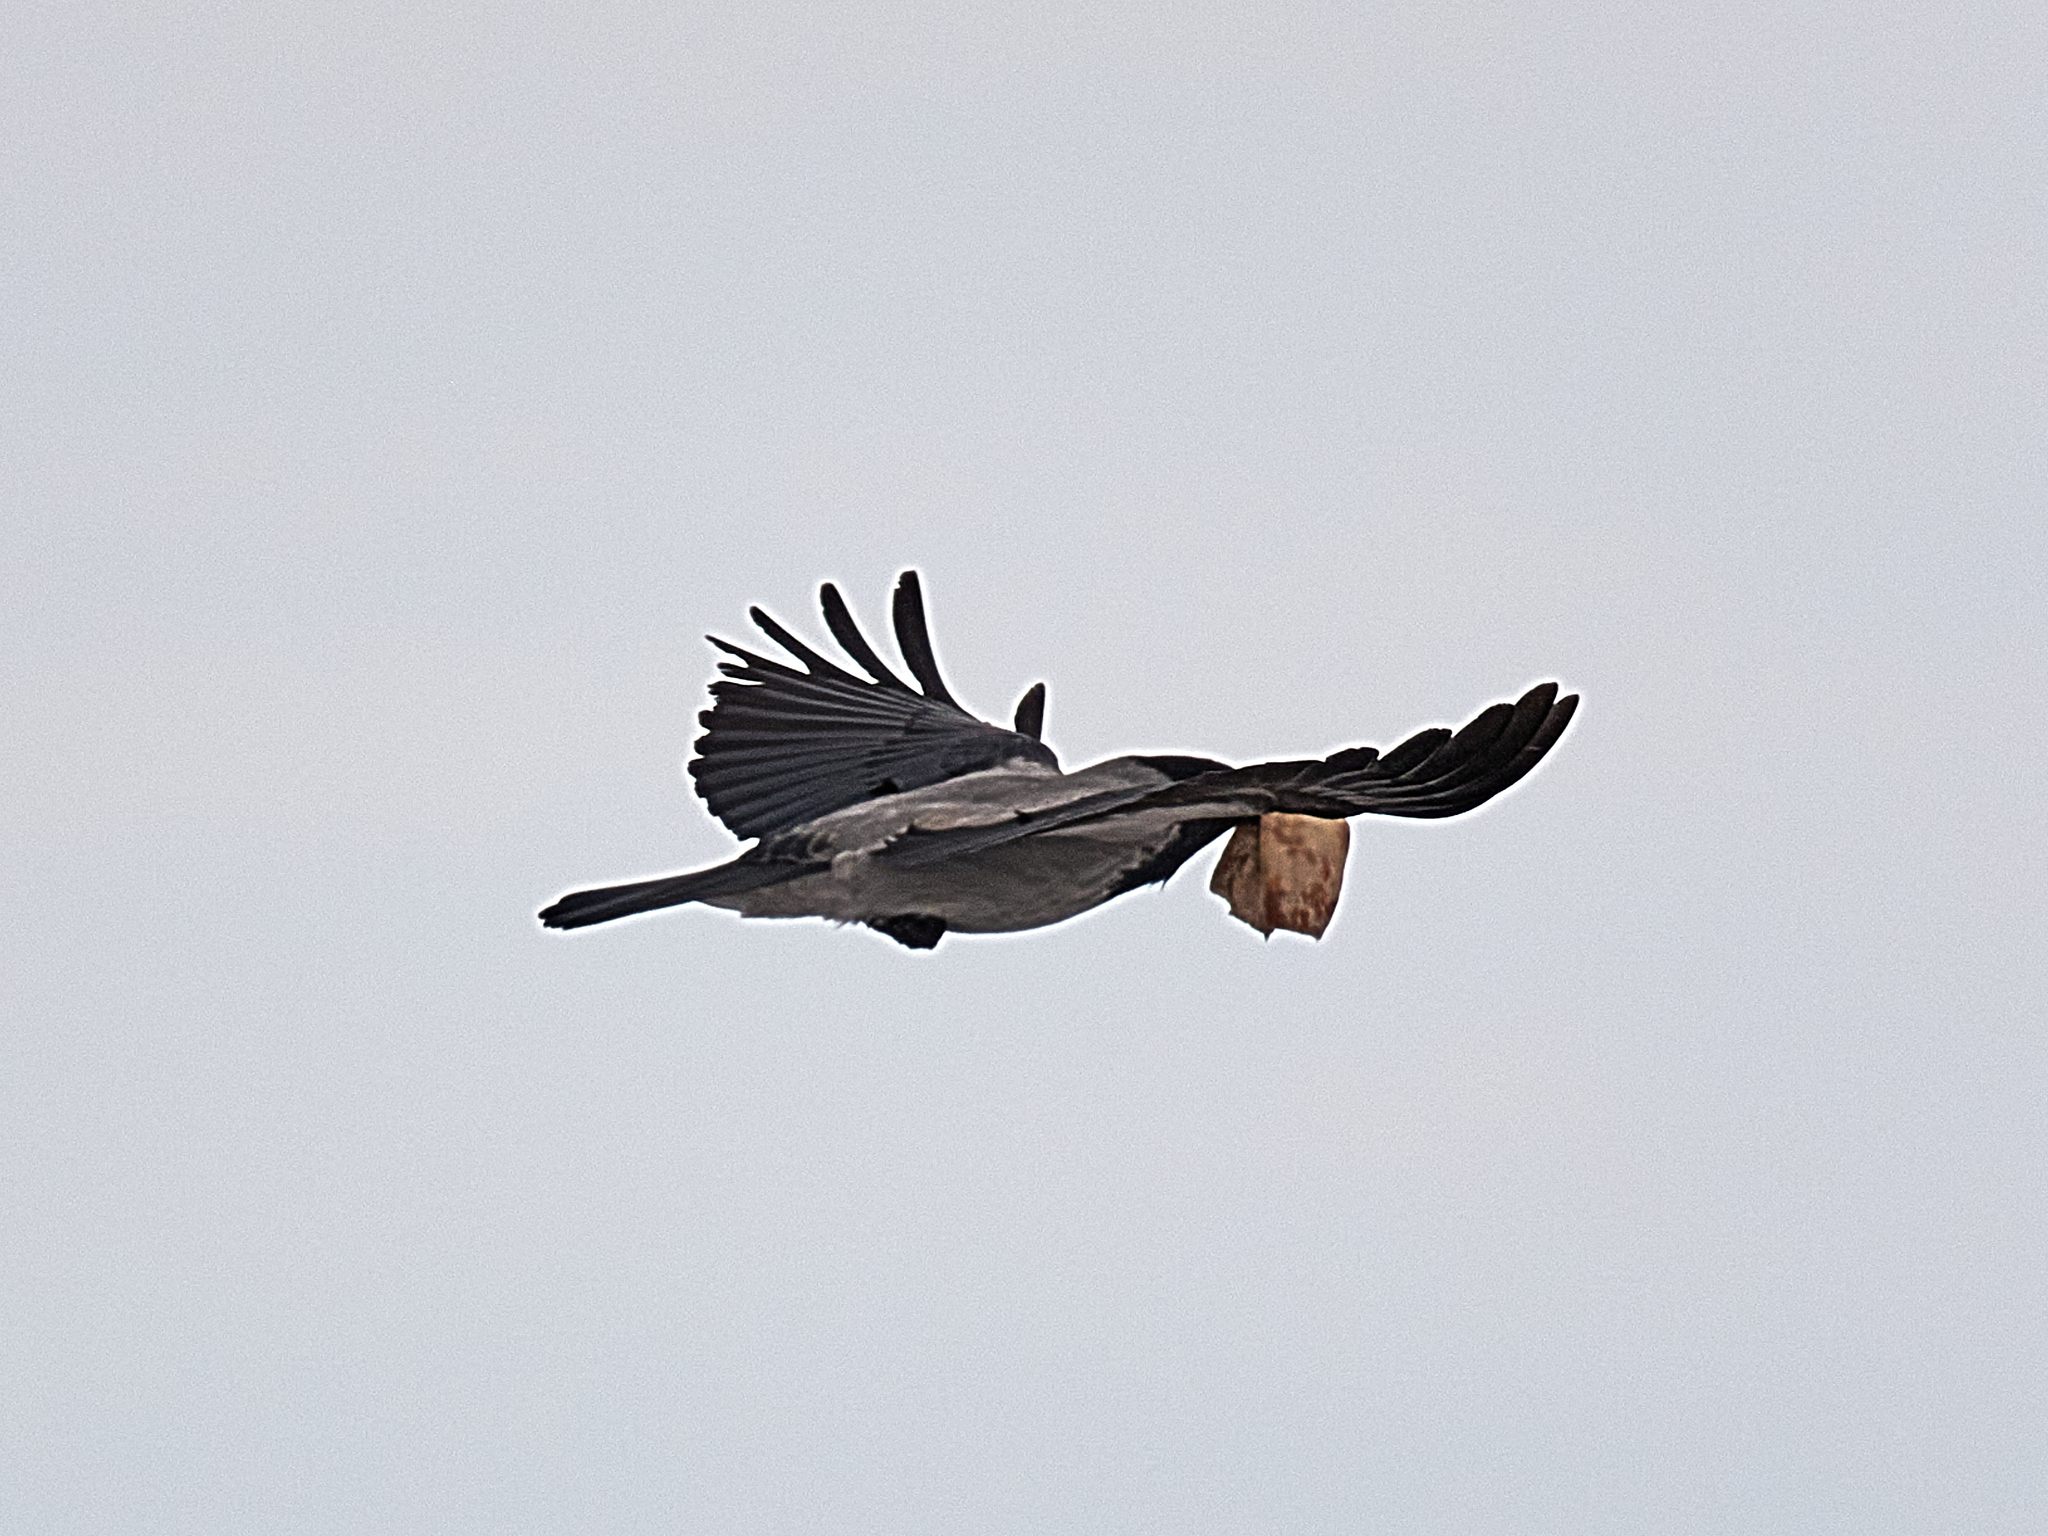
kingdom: Animalia
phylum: Chordata
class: Aves
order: Passeriformes
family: Corvidae
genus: Corvus
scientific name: Corvus cornix
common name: Hooded crow
